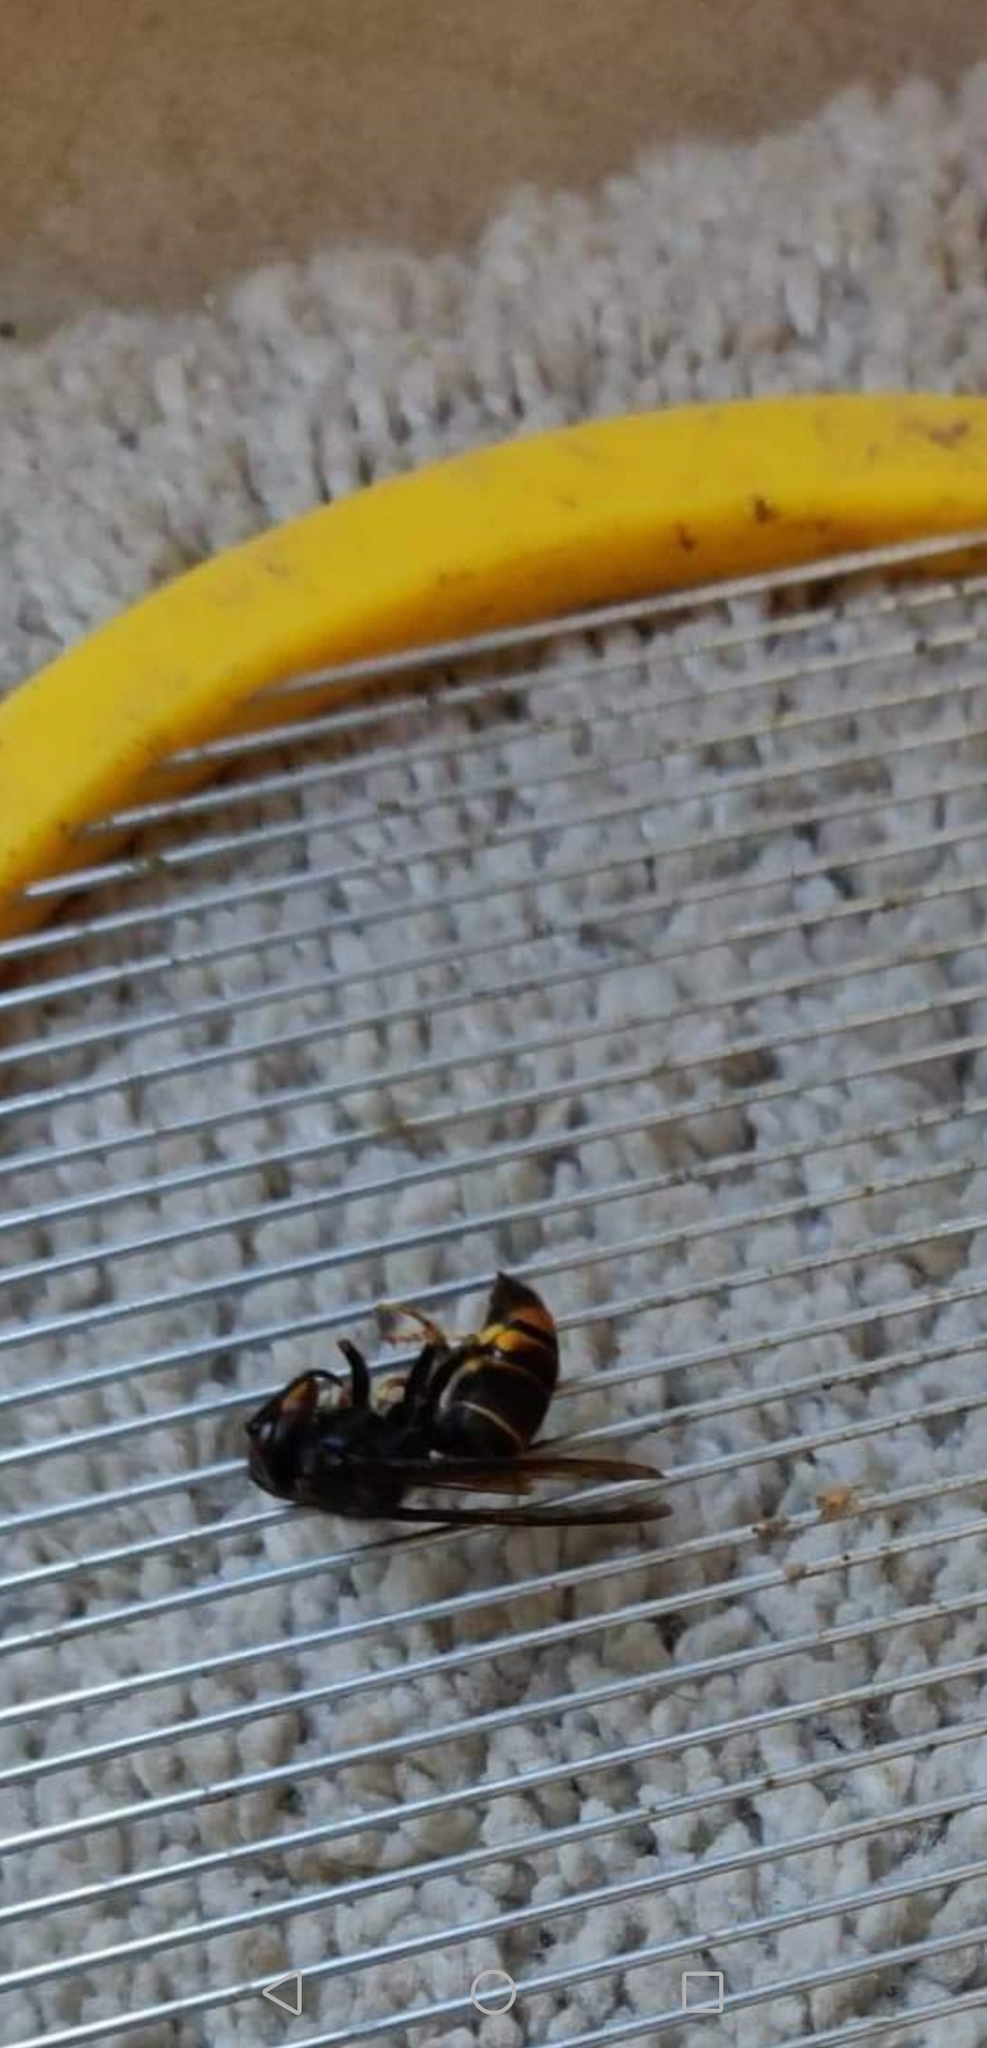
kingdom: Animalia
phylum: Arthropoda
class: Insecta
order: Hymenoptera
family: Vespidae
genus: Vespa
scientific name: Vespa velutina
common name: Asian hornet
